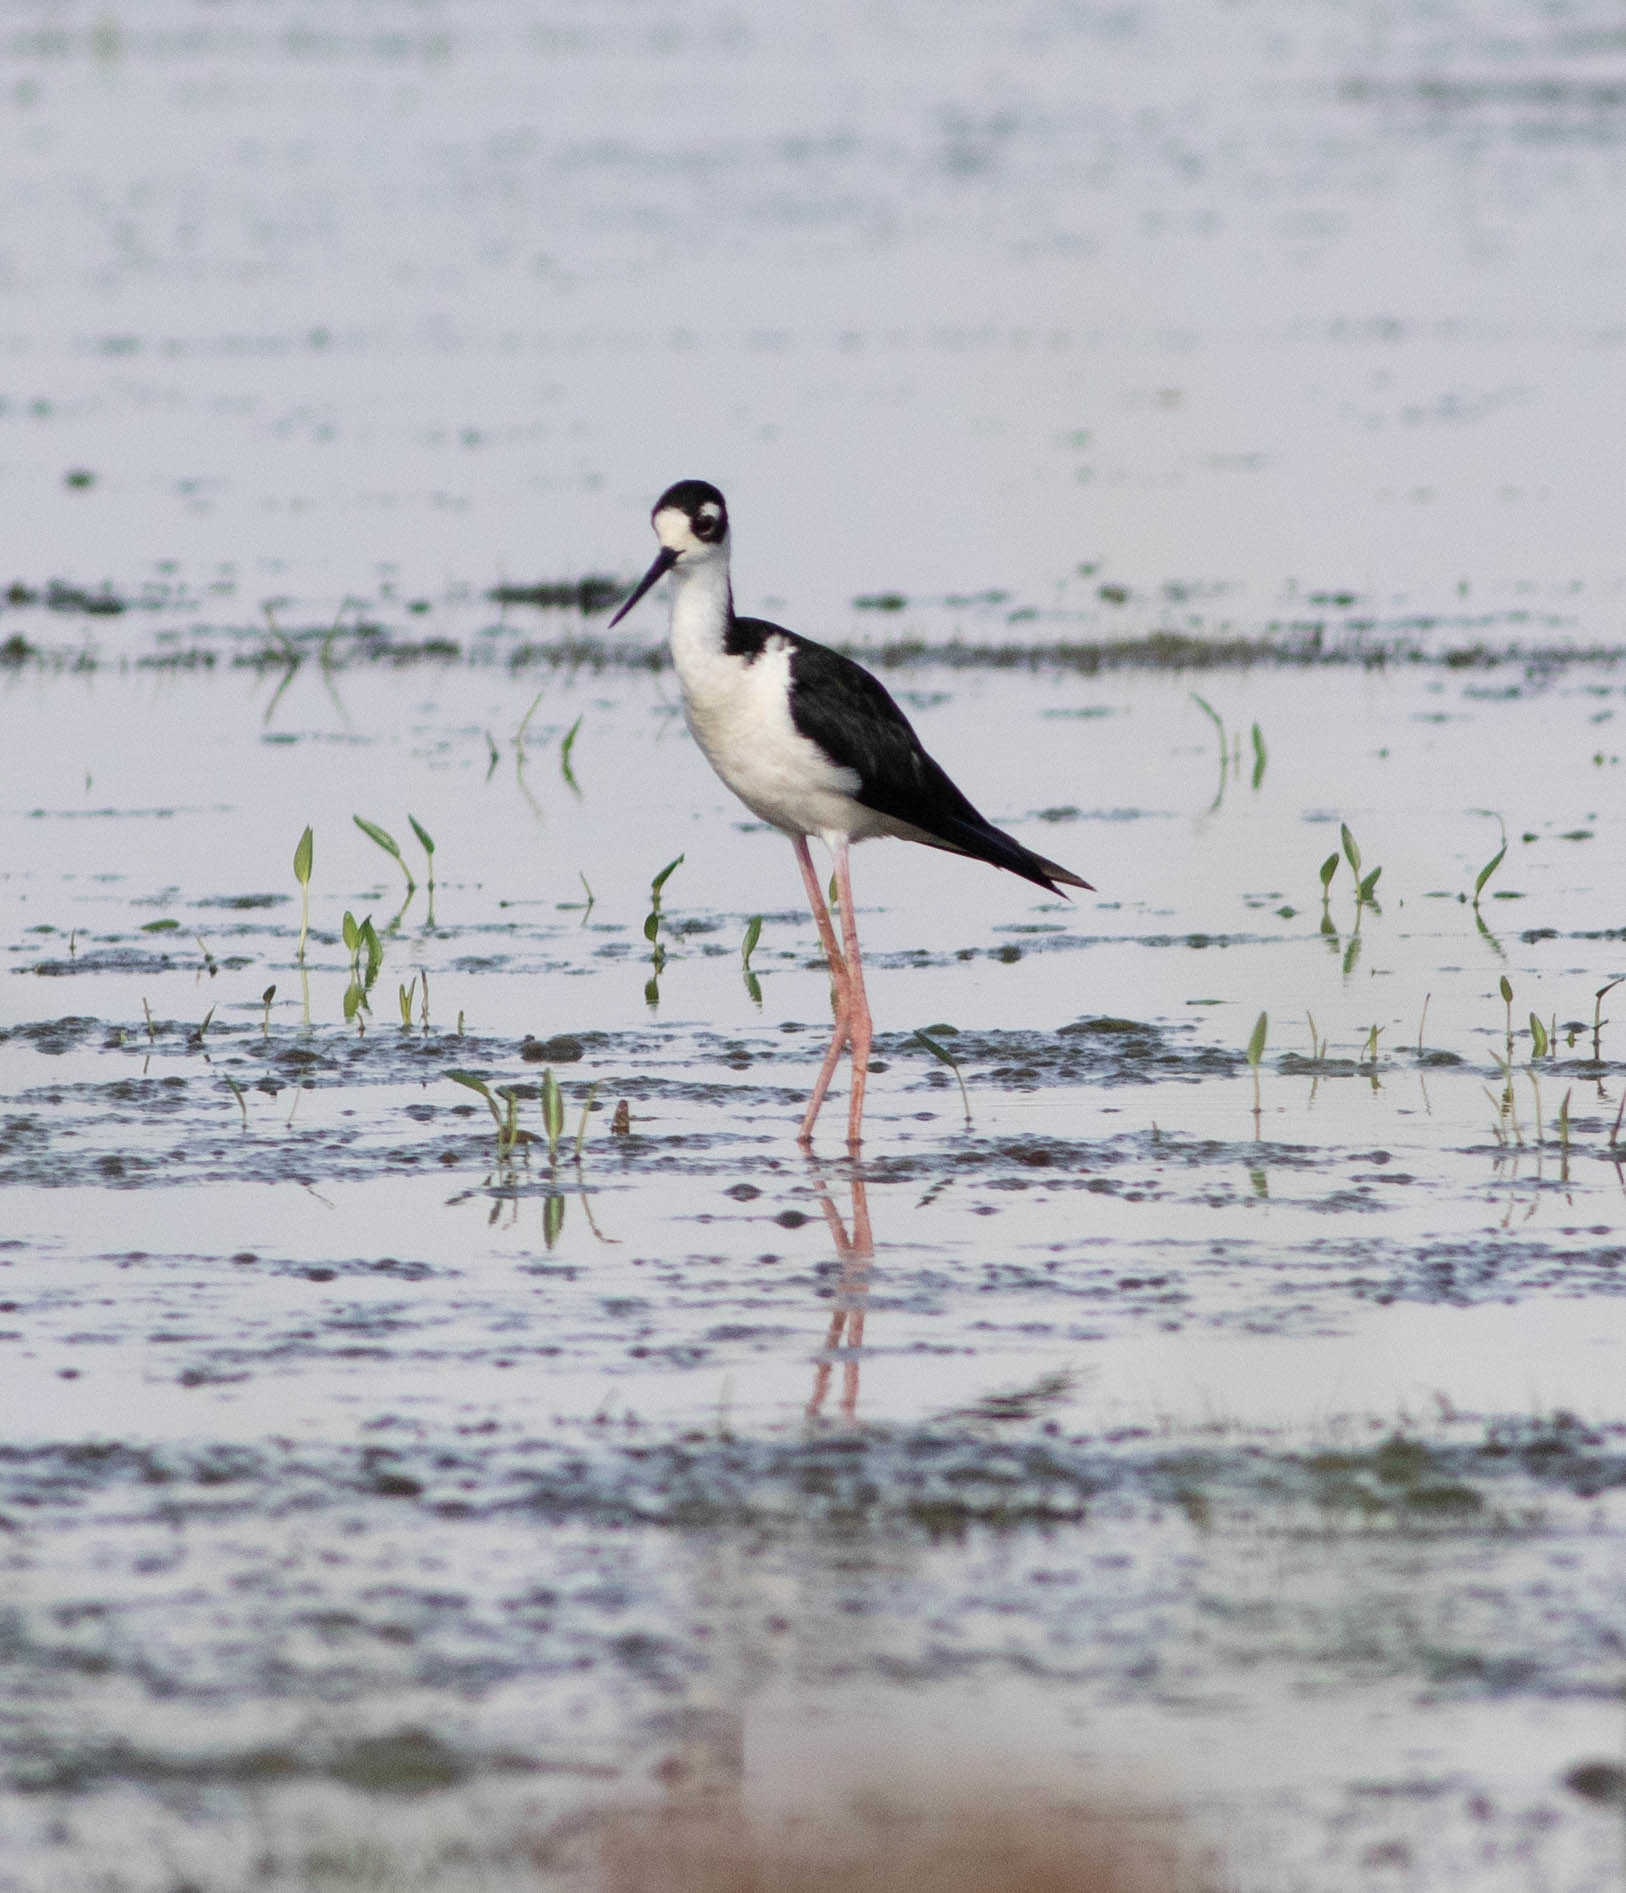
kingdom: Animalia
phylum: Chordata
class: Aves
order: Charadriiformes
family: Recurvirostridae
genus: Himantopus
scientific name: Himantopus mexicanus
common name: Black-necked stilt
